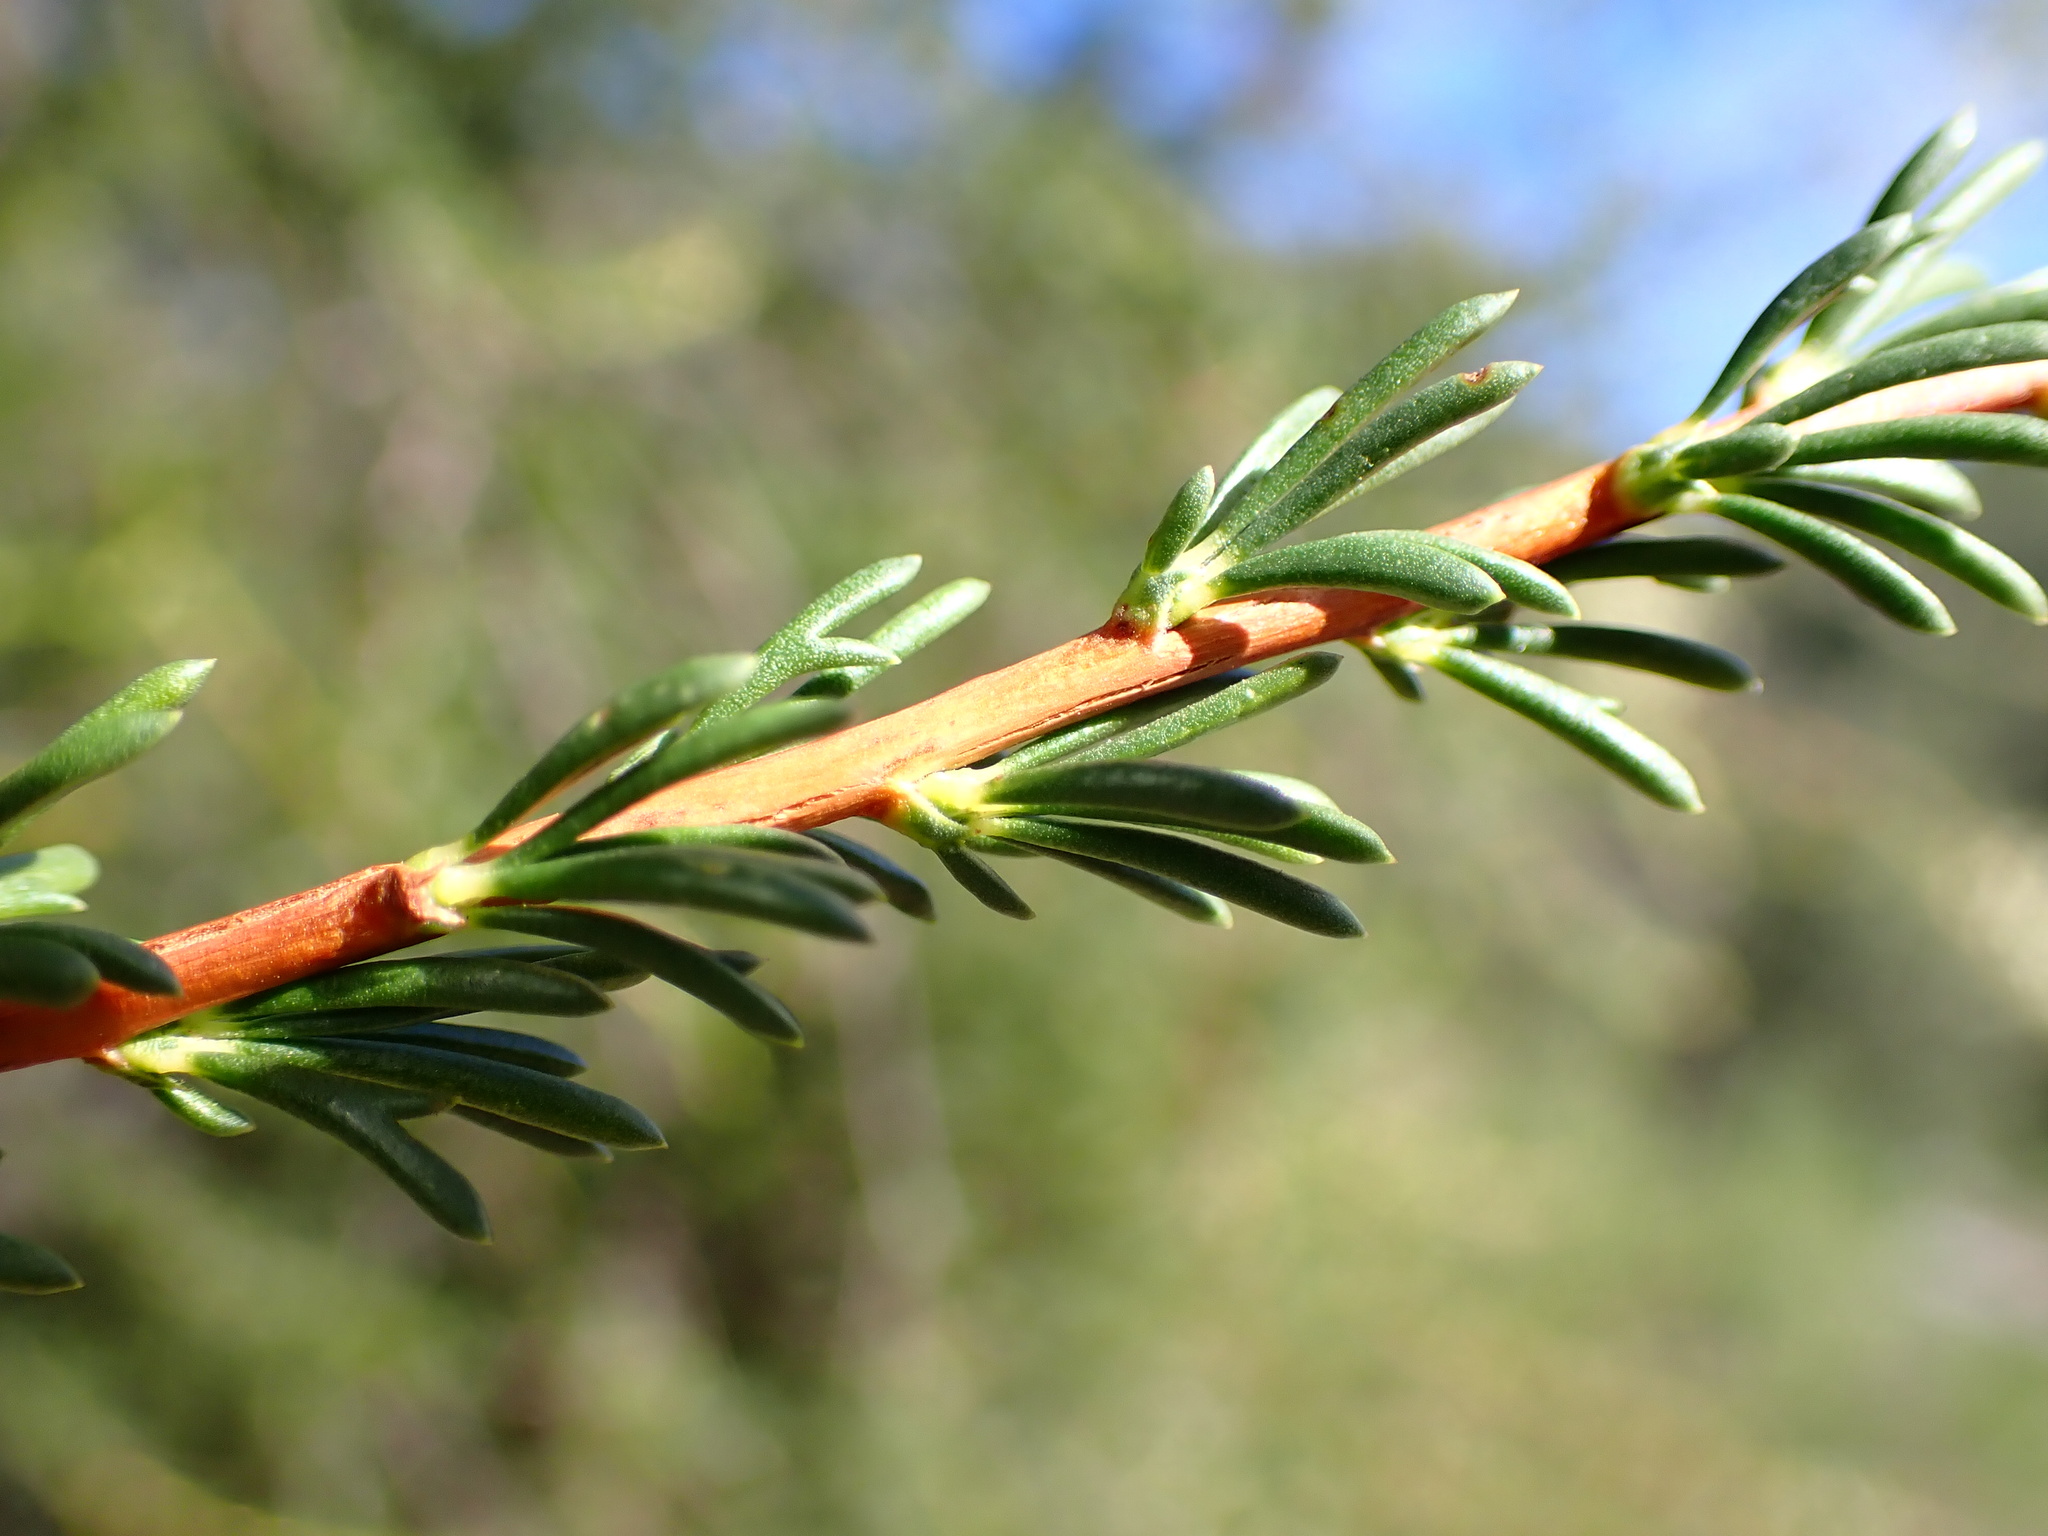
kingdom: Plantae
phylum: Tracheophyta
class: Magnoliopsida
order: Rosales
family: Rosaceae
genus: Adenostoma
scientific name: Adenostoma fasciculatum
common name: Chamise
